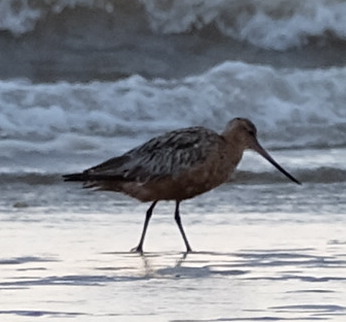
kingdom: Animalia
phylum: Chordata
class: Aves
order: Charadriiformes
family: Scolopacidae
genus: Limosa
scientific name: Limosa limosa
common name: Black-tailed godwit
